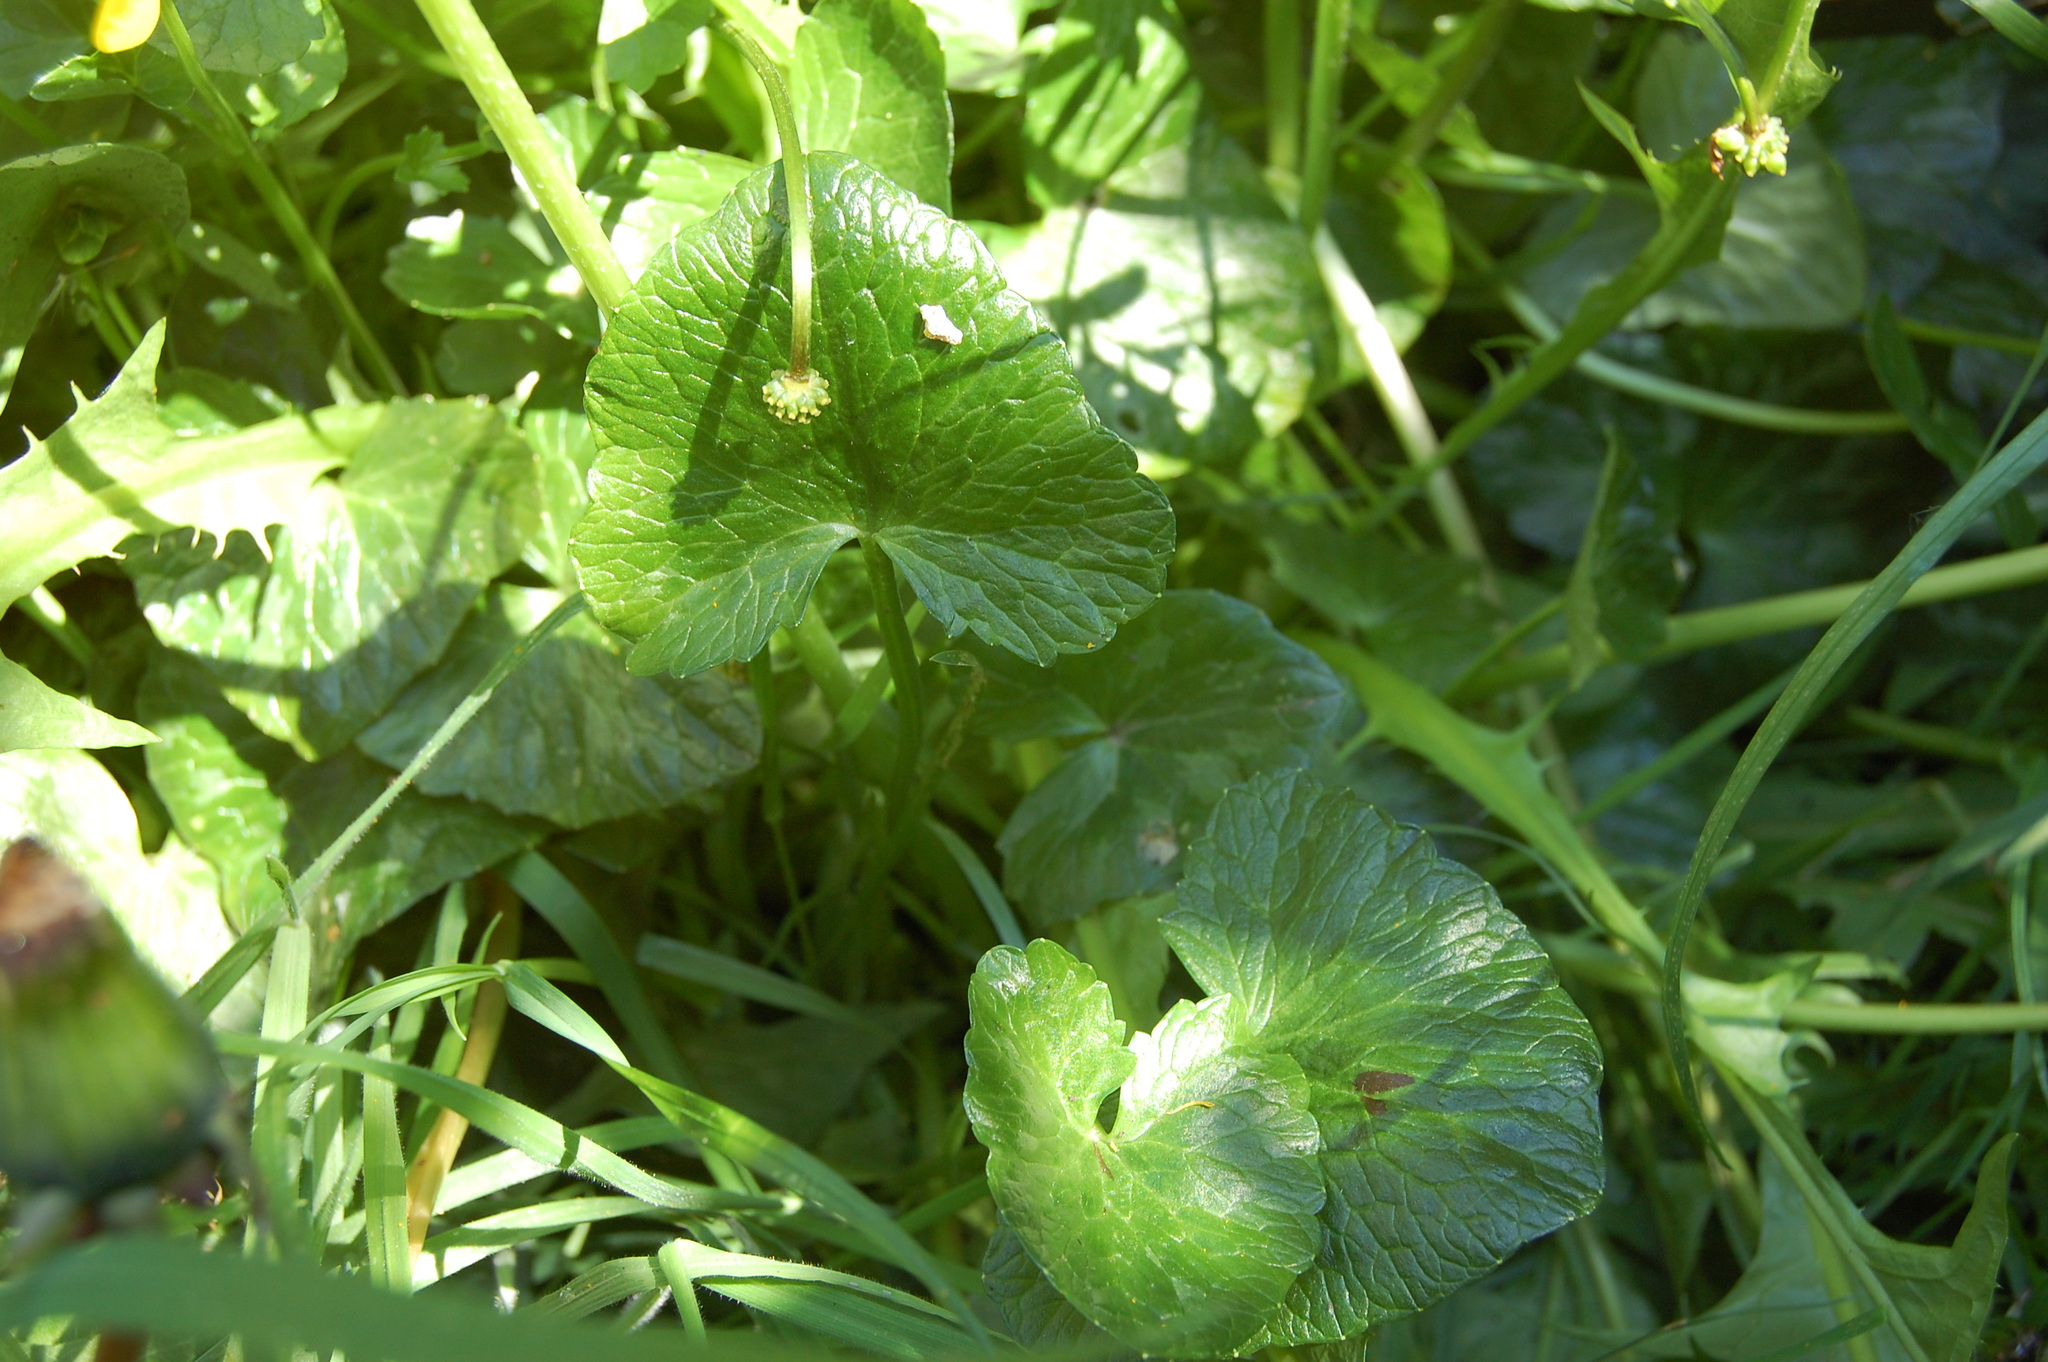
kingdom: Plantae
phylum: Tracheophyta
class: Magnoliopsida
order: Ranunculales
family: Ranunculaceae
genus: Ficaria
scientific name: Ficaria verna
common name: Lesser celandine
